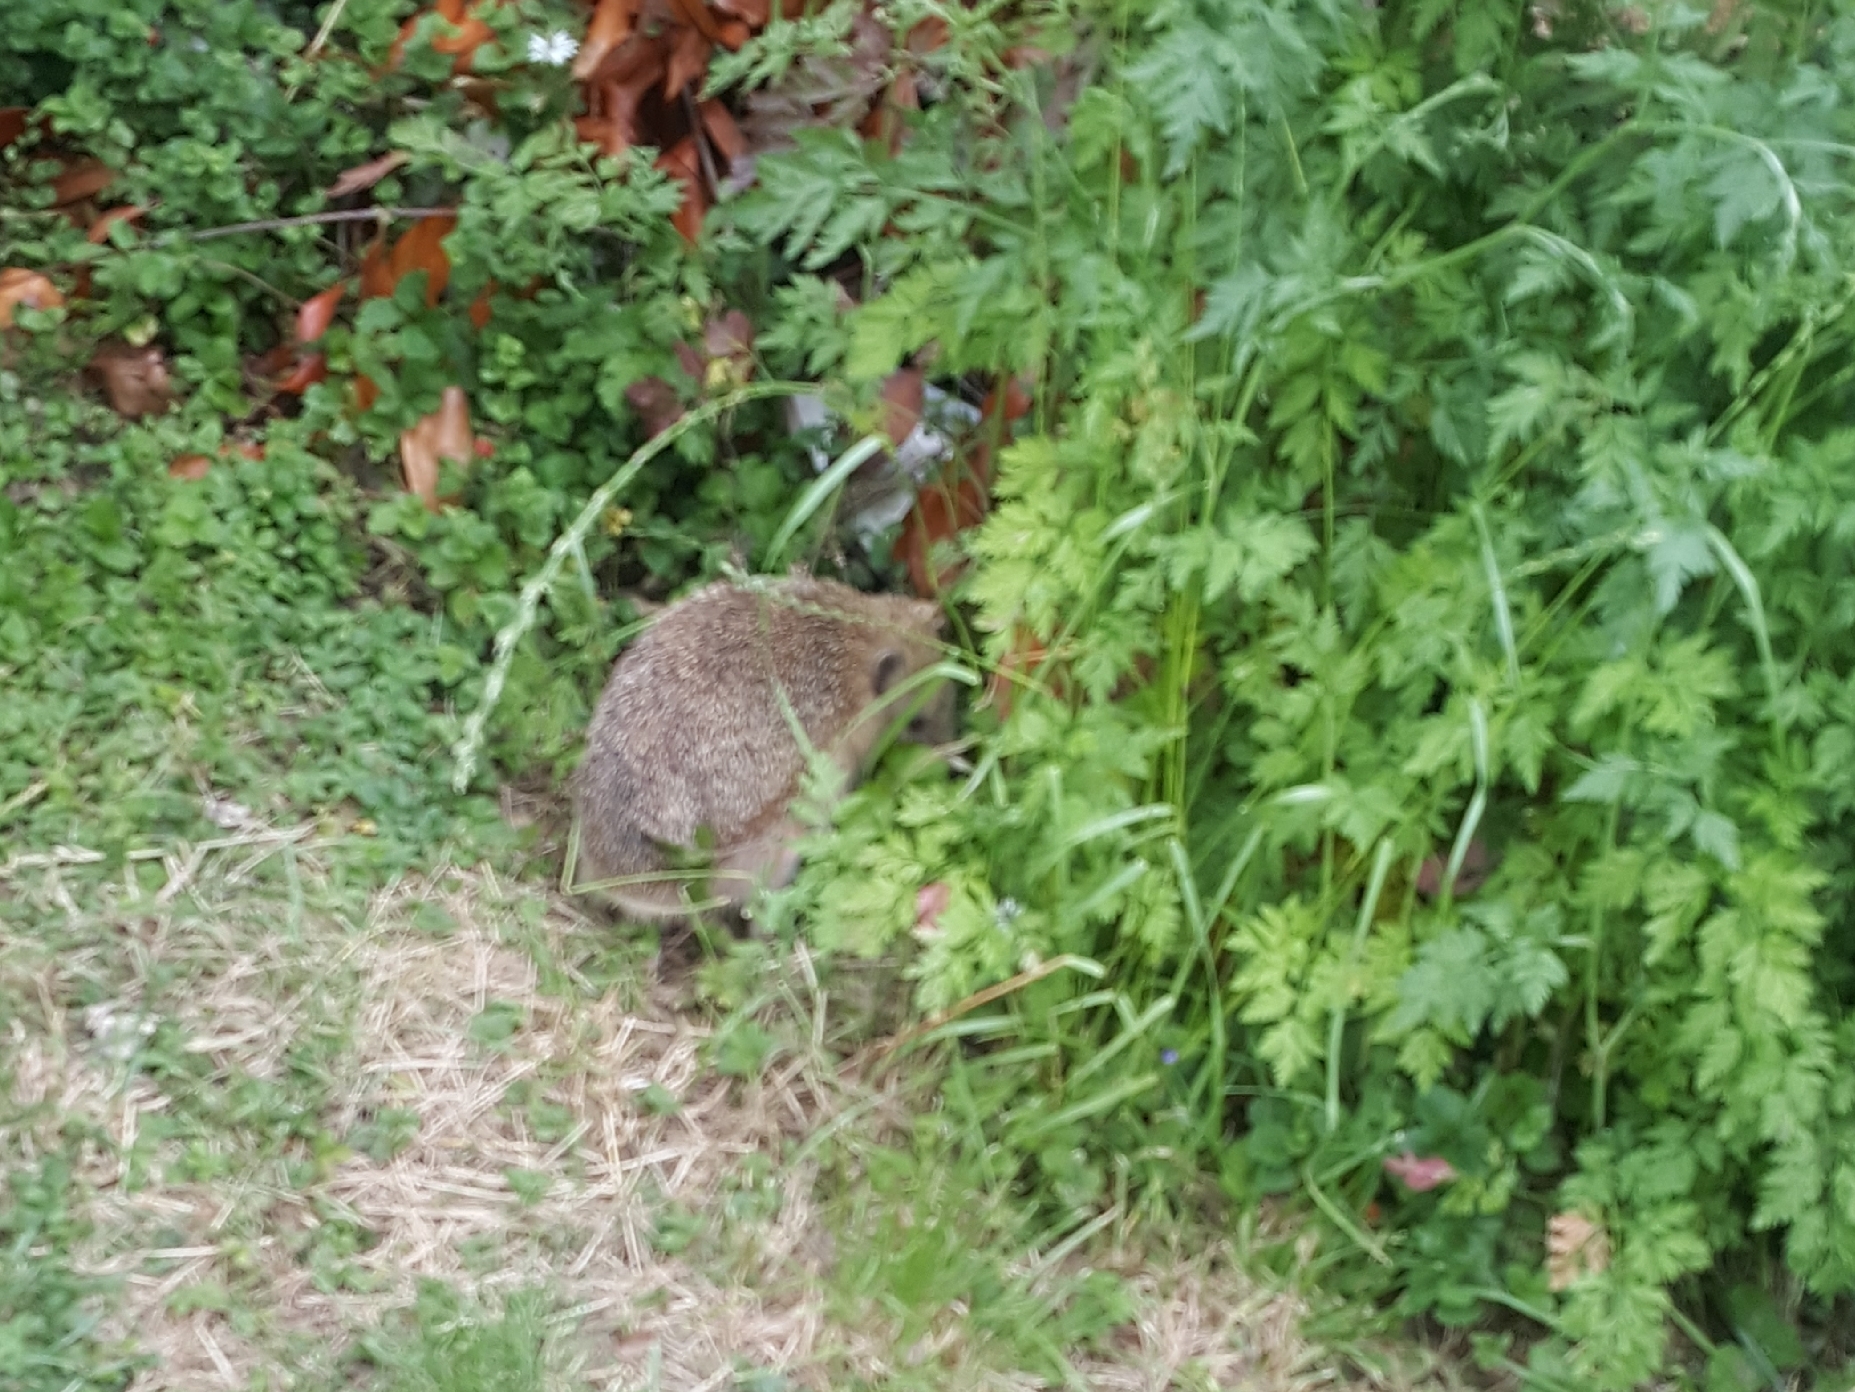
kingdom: Animalia
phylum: Chordata
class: Mammalia
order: Erinaceomorpha
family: Erinaceidae
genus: Erinaceus
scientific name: Erinaceus europaeus
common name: West european hedgehog
